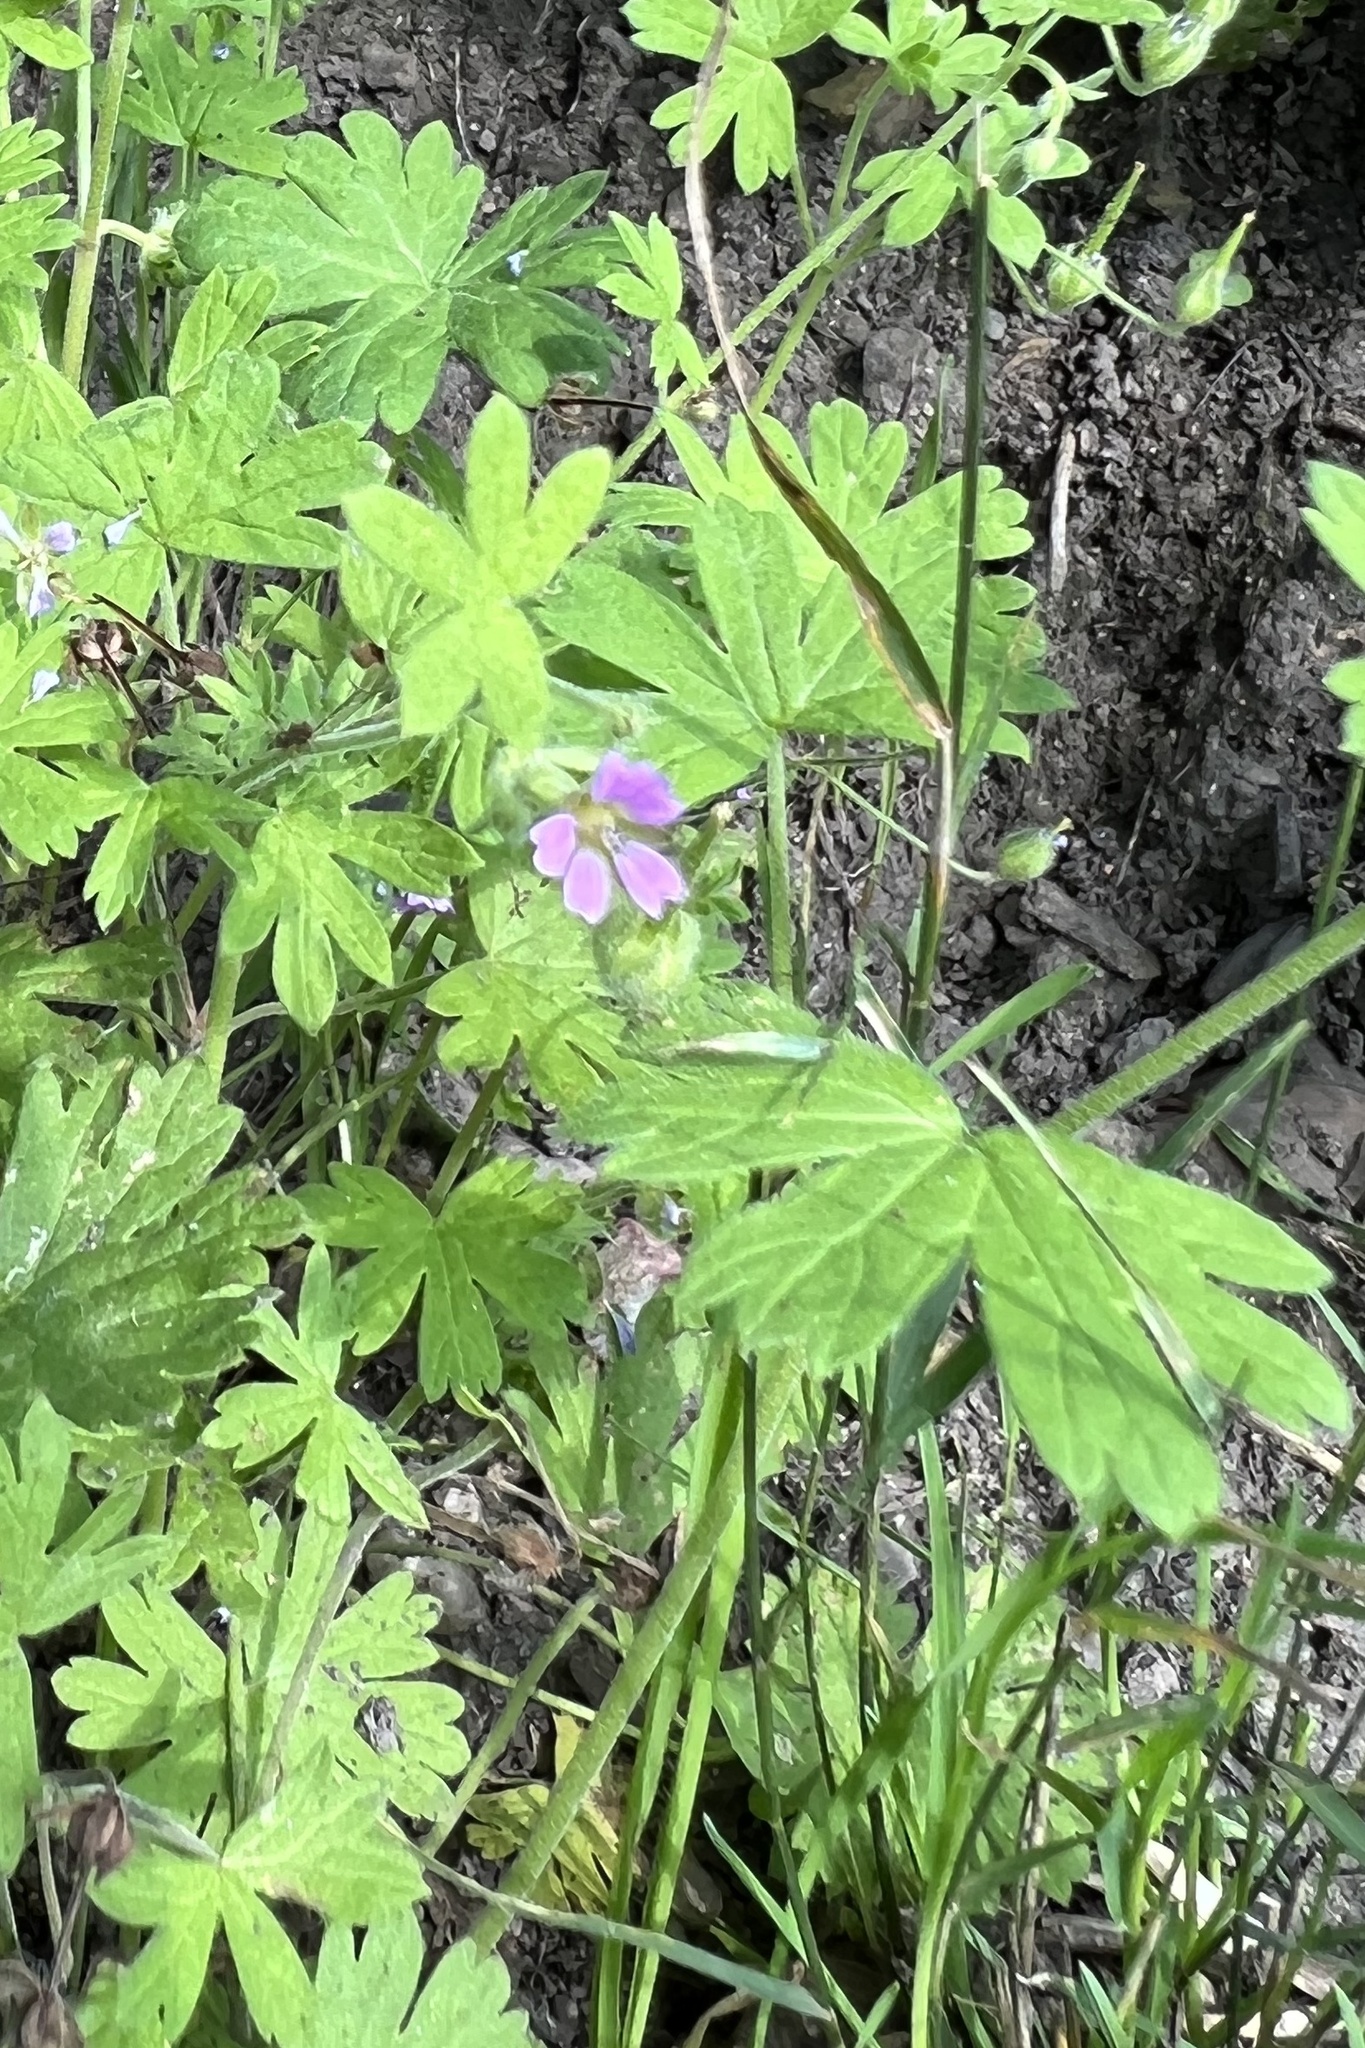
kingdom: Plantae
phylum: Tracheophyta
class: Magnoliopsida
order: Geraniales
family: Geraniaceae
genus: Geranium
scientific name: Geranium pusillum
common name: Small geranium
